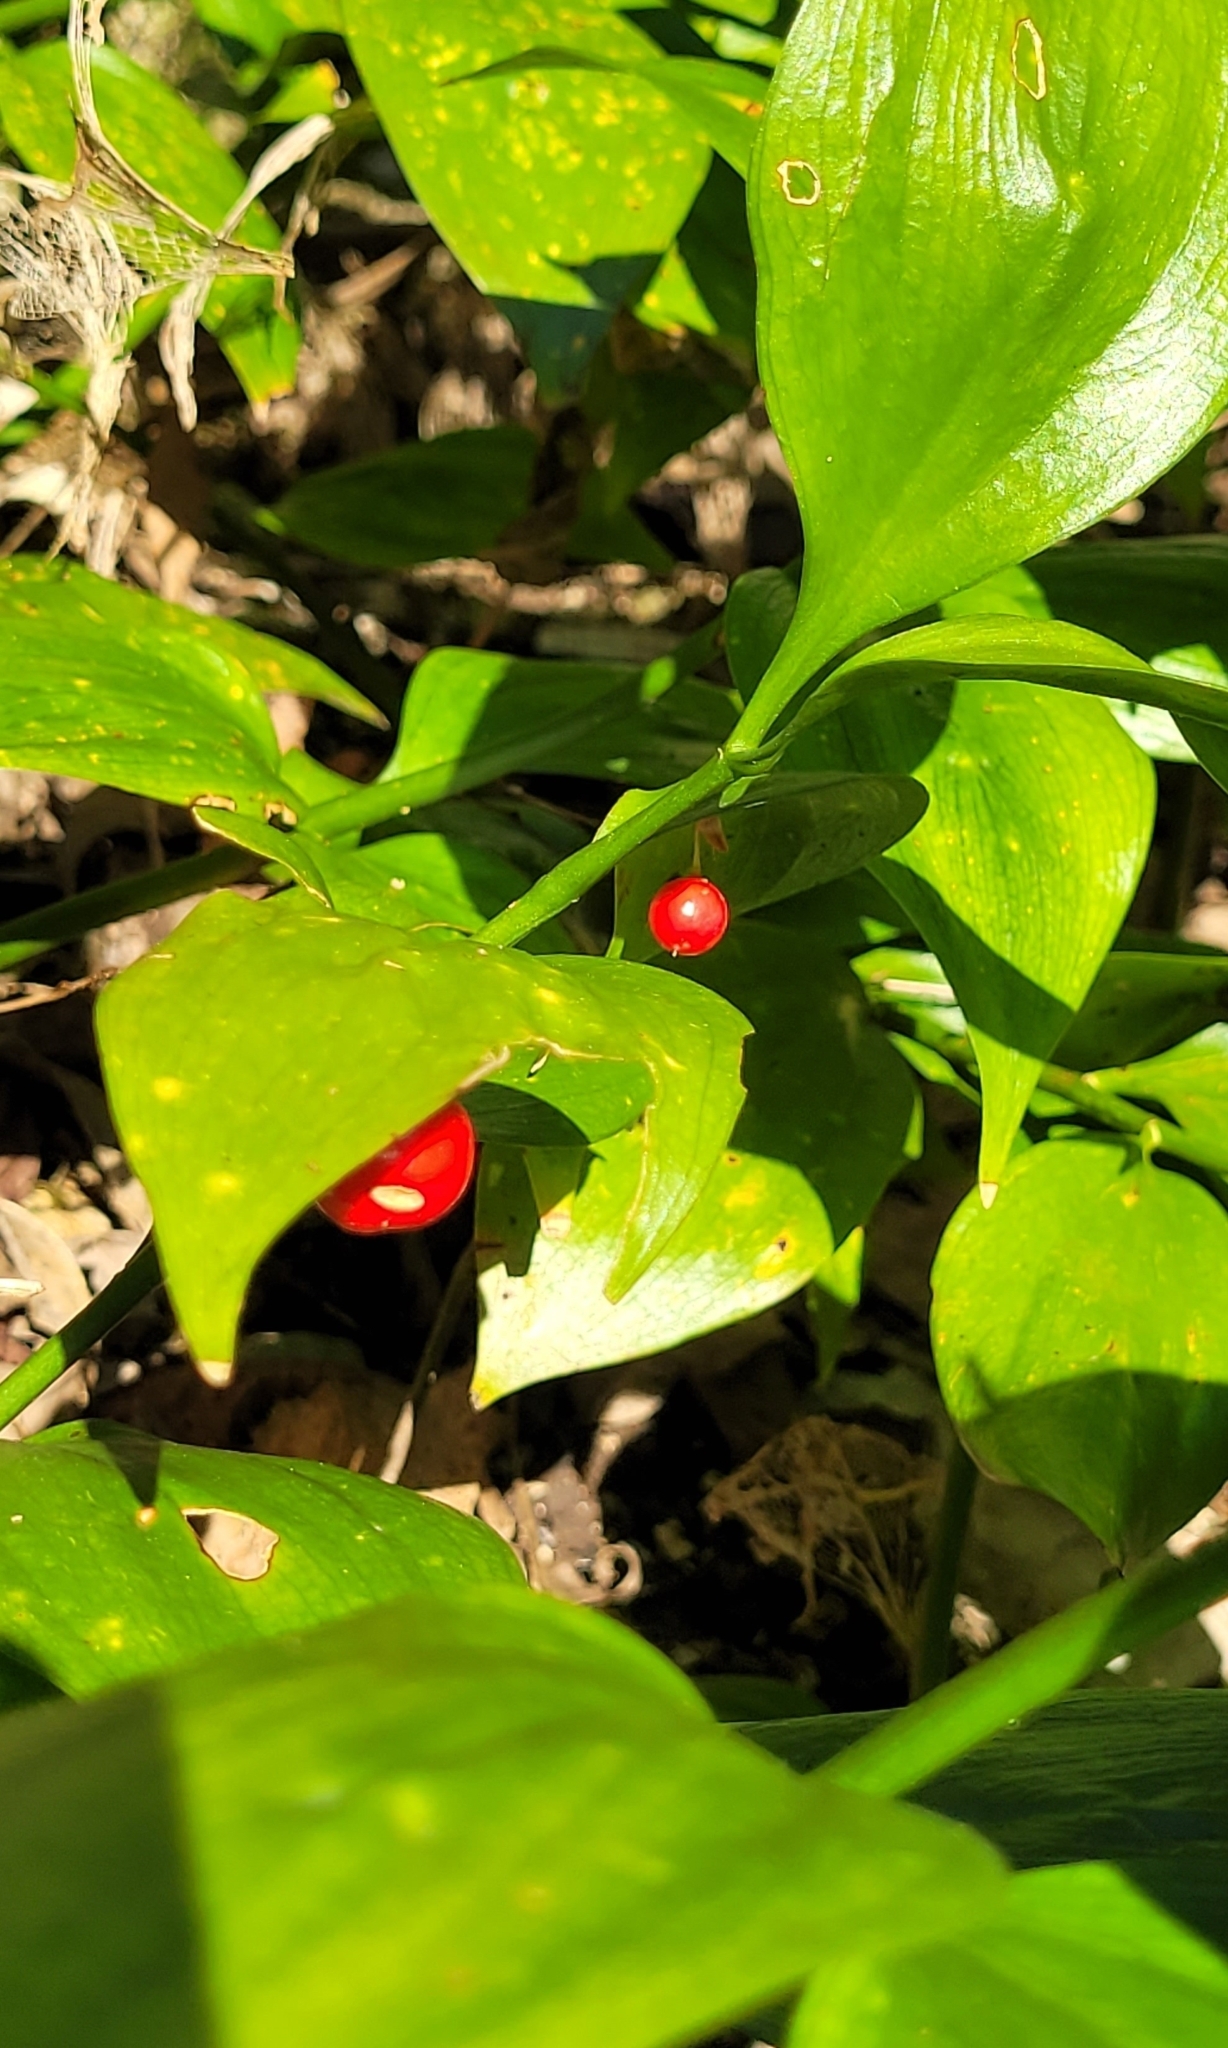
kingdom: Plantae
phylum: Tracheophyta
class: Liliopsida
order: Asparagales
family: Asparagaceae
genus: Ruscus
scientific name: Ruscus colchicus
